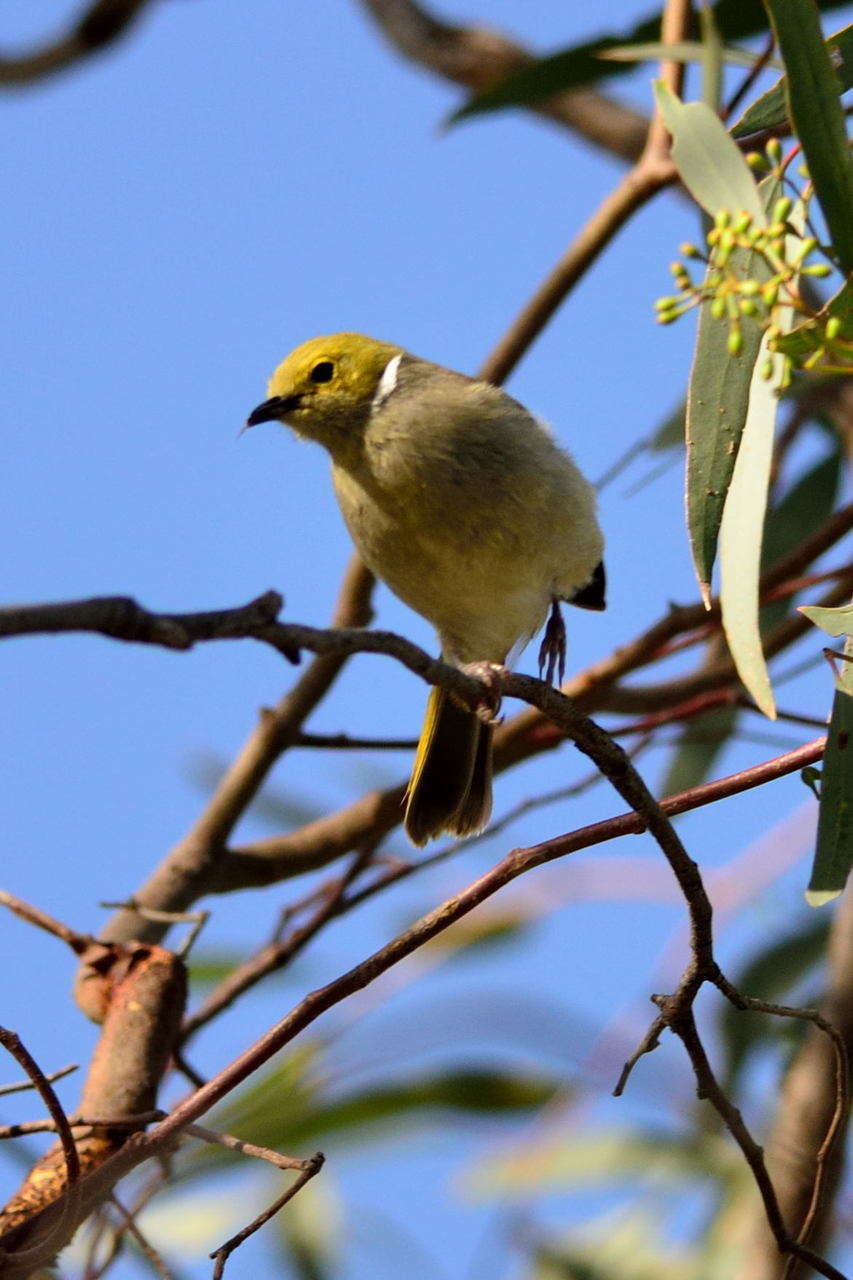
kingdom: Animalia
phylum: Chordata
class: Aves
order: Passeriformes
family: Meliphagidae
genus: Ptilotula
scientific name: Ptilotula penicillata
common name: White-plumed honeyeater
